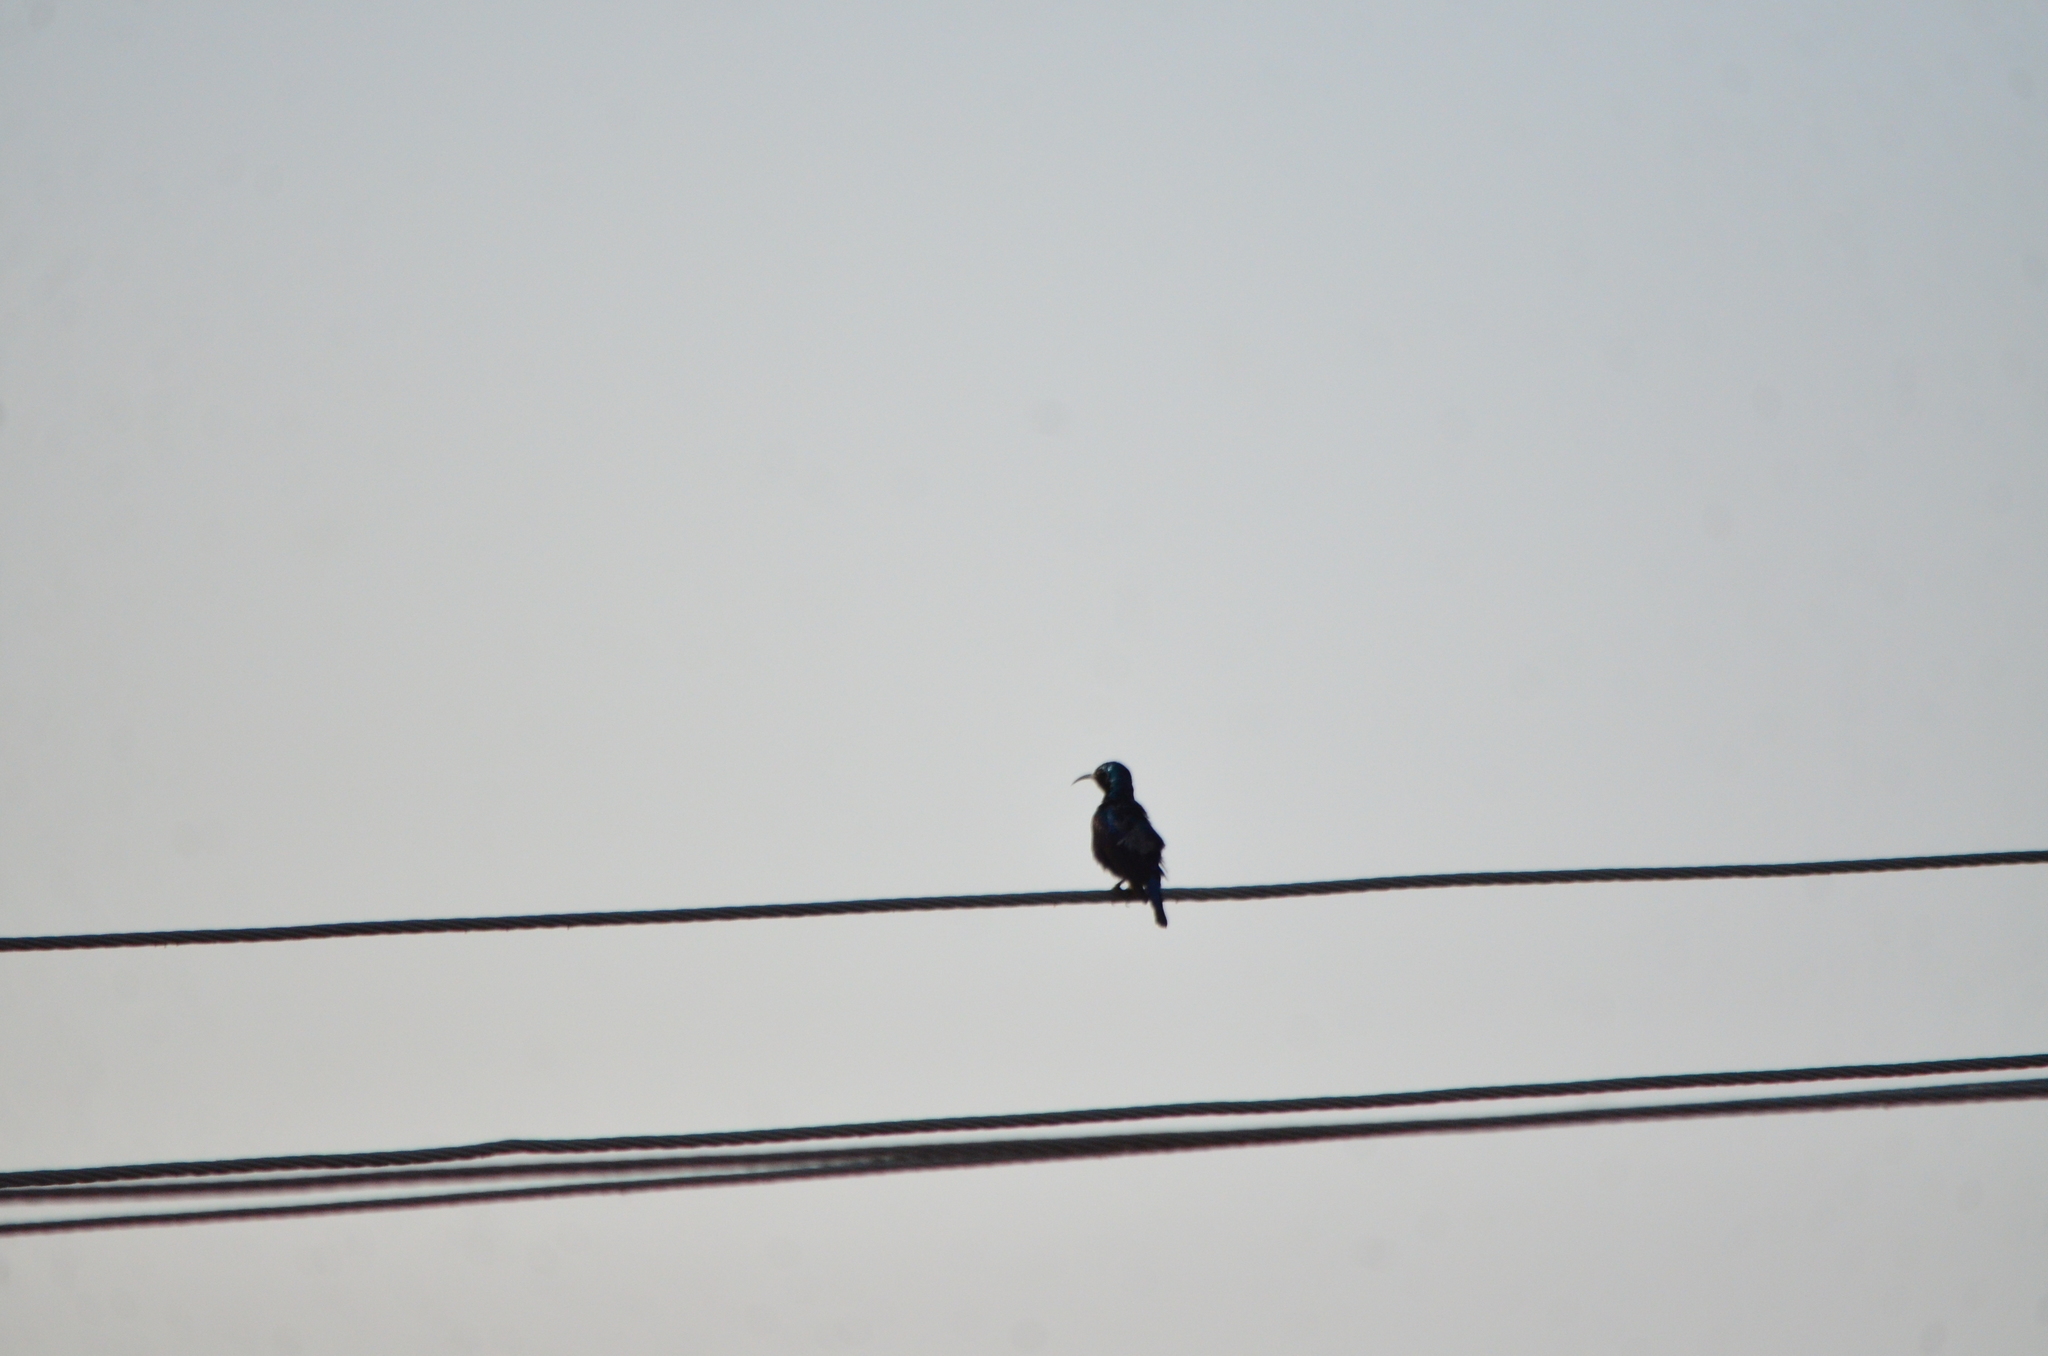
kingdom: Animalia
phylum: Chordata
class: Aves
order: Passeriformes
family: Nectariniidae
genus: Cinnyris
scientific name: Cinnyris asiaticus
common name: Purple sunbird
